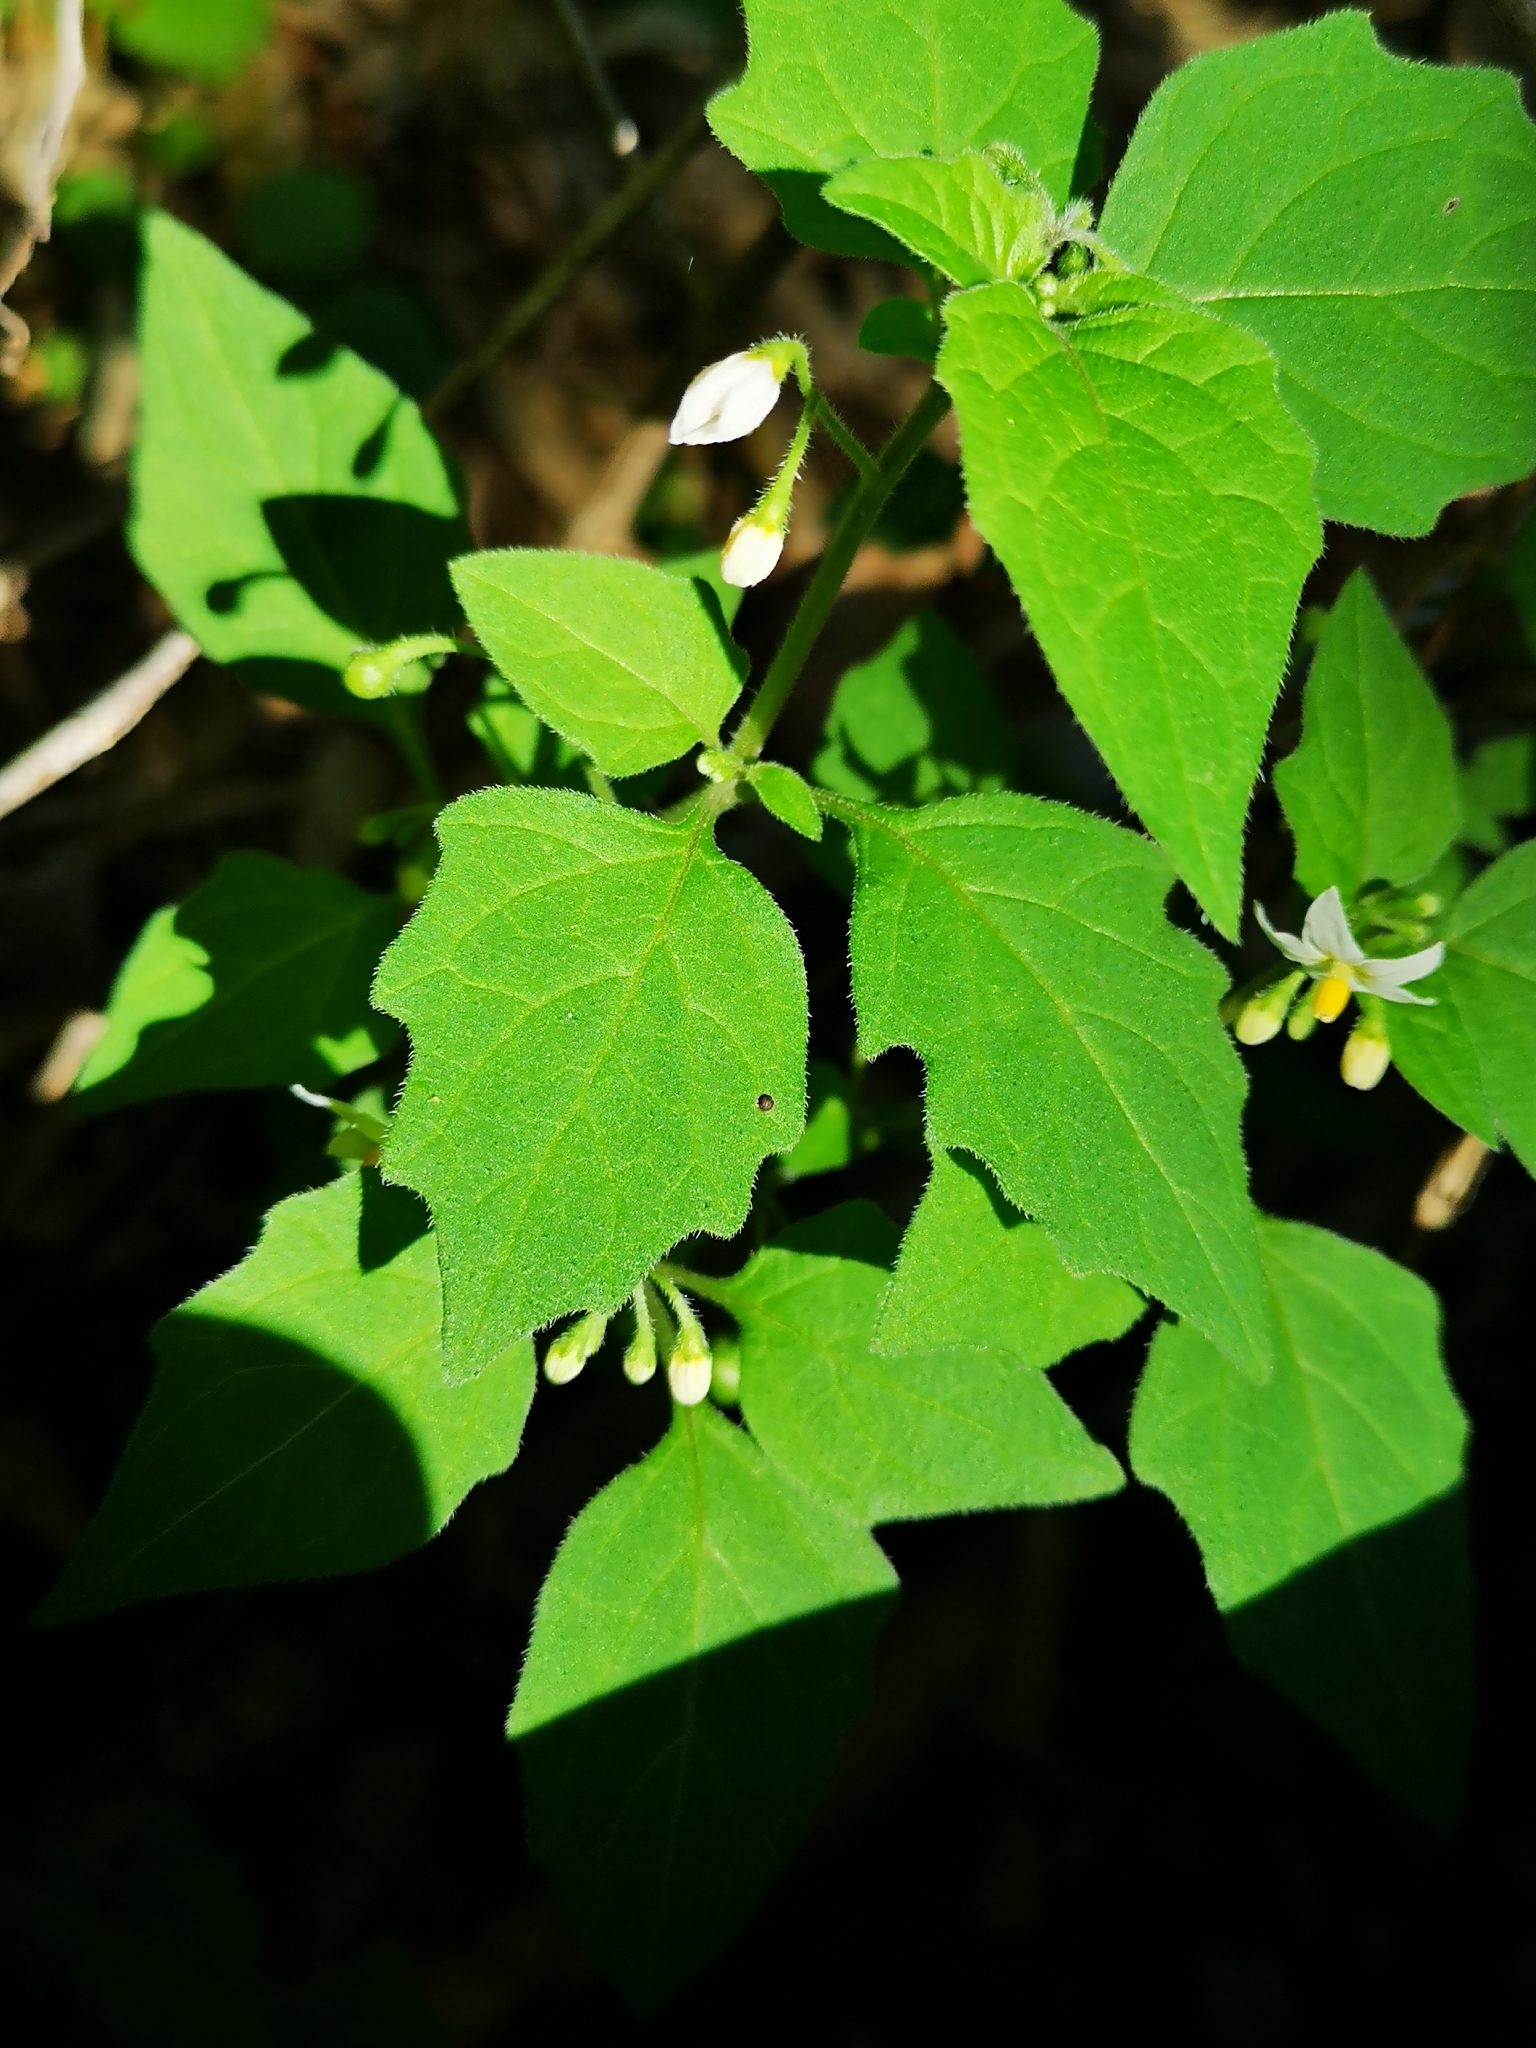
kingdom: Plantae
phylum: Tracheophyta
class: Magnoliopsida
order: Solanales
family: Solanaceae
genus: Solanum
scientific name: Solanum nigrum
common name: Black nightshade
